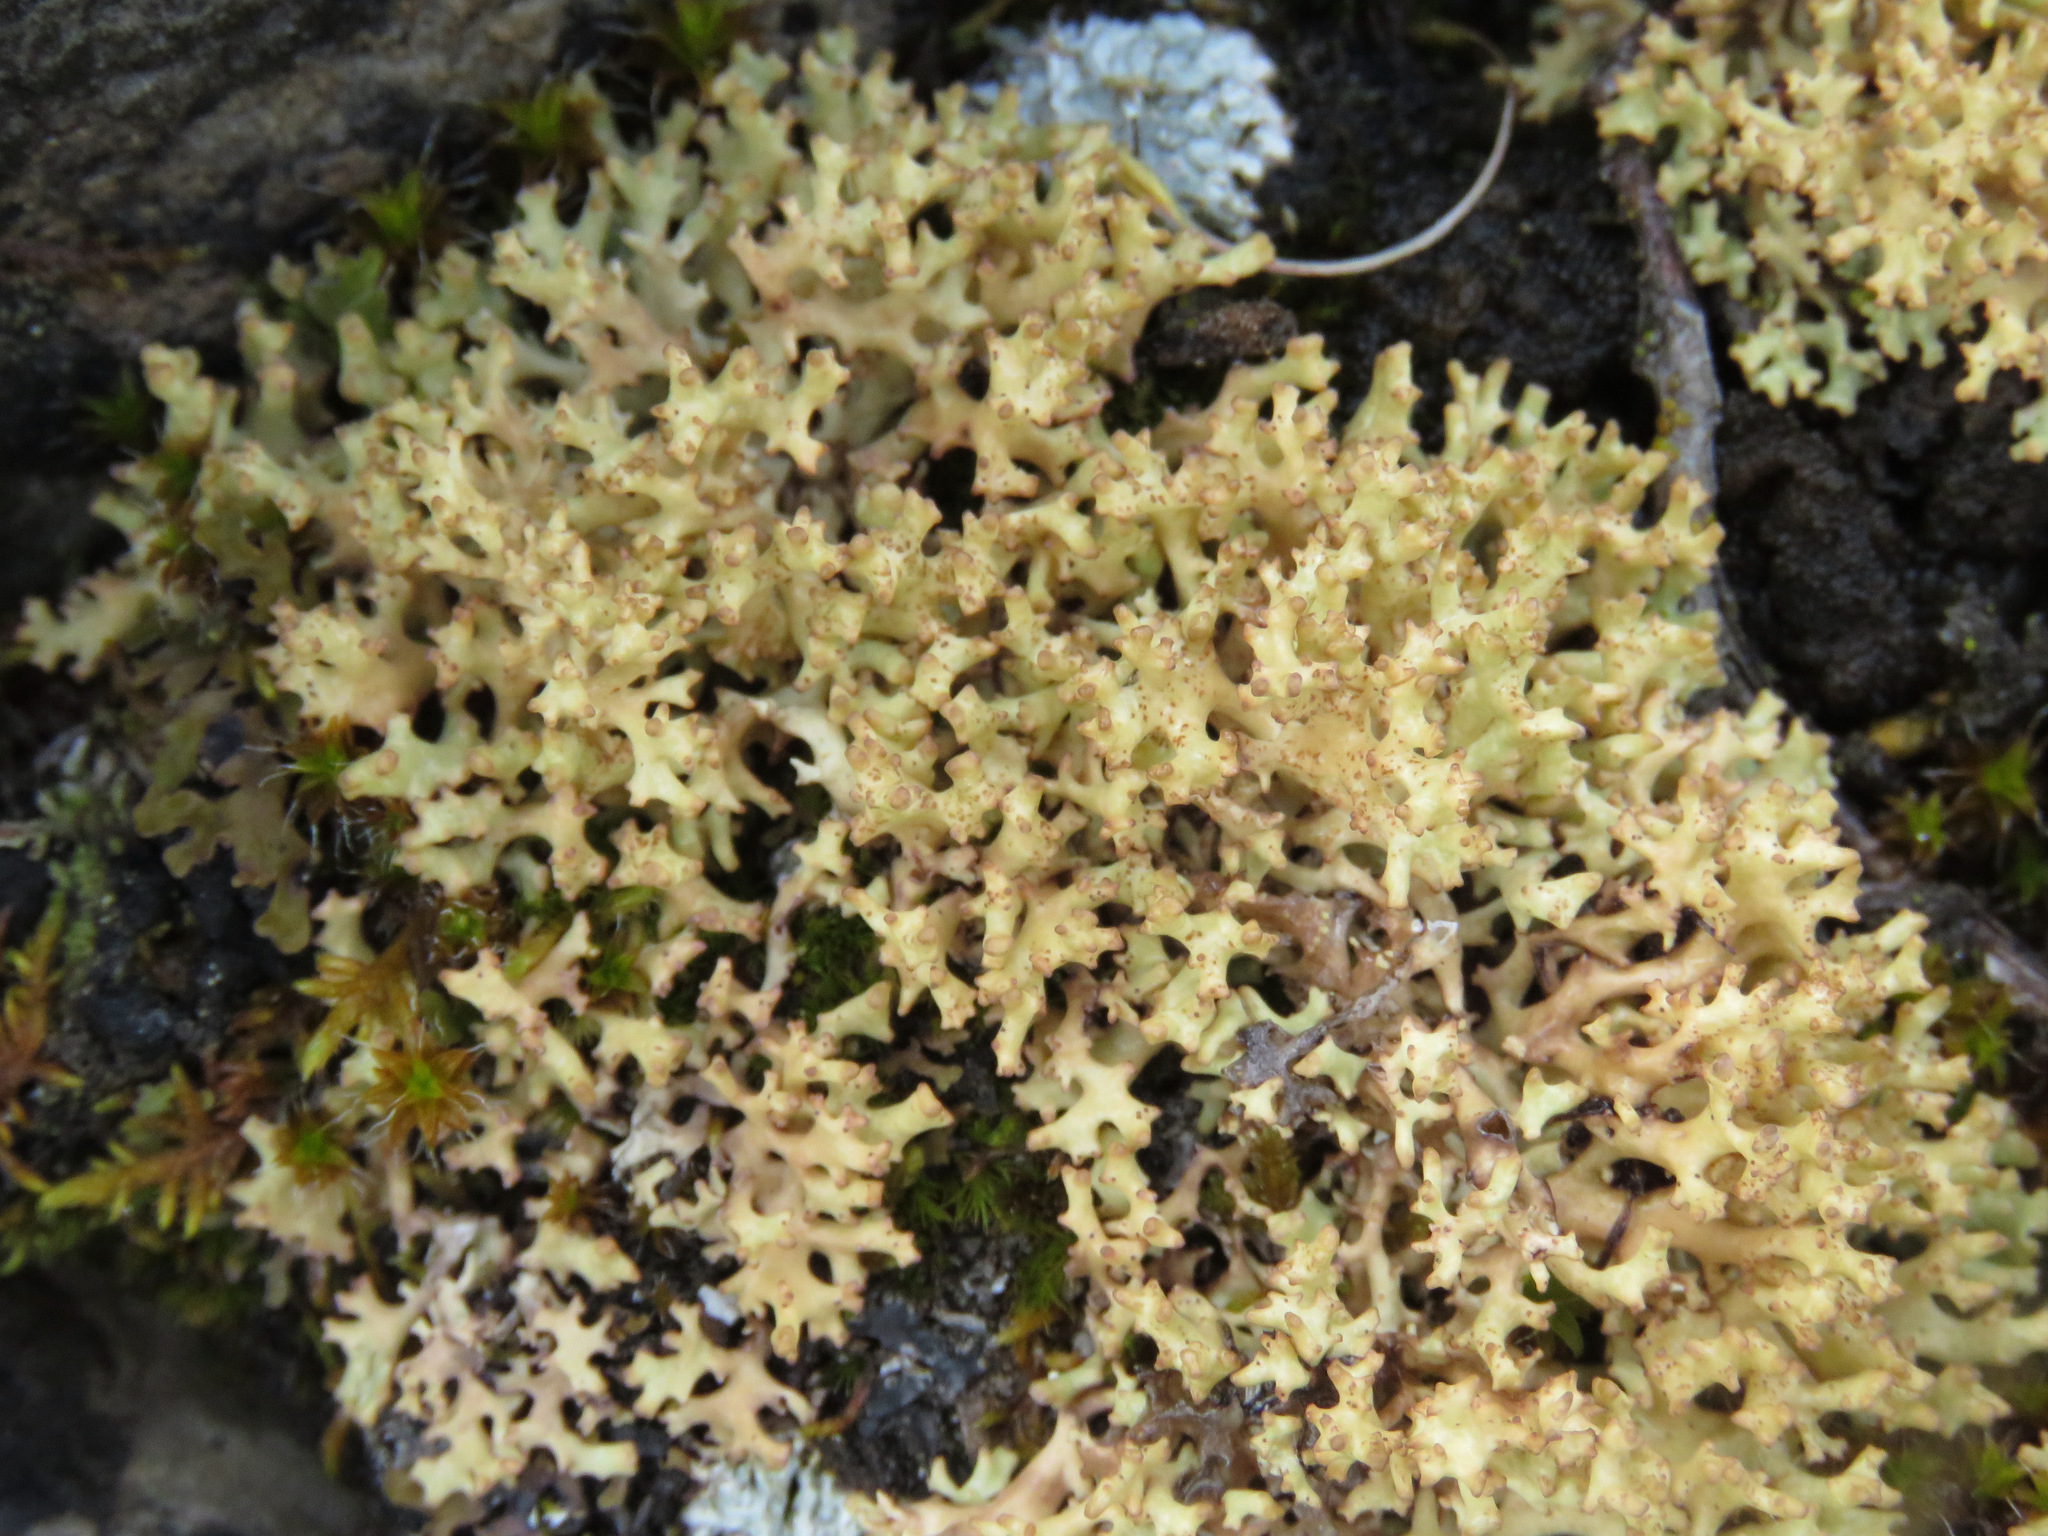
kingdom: Fungi
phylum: Ascomycota
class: Lecanoromycetes
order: Lecanorales
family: Parmeliaceae
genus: Dactylina
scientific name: Dactylina ramulosa
